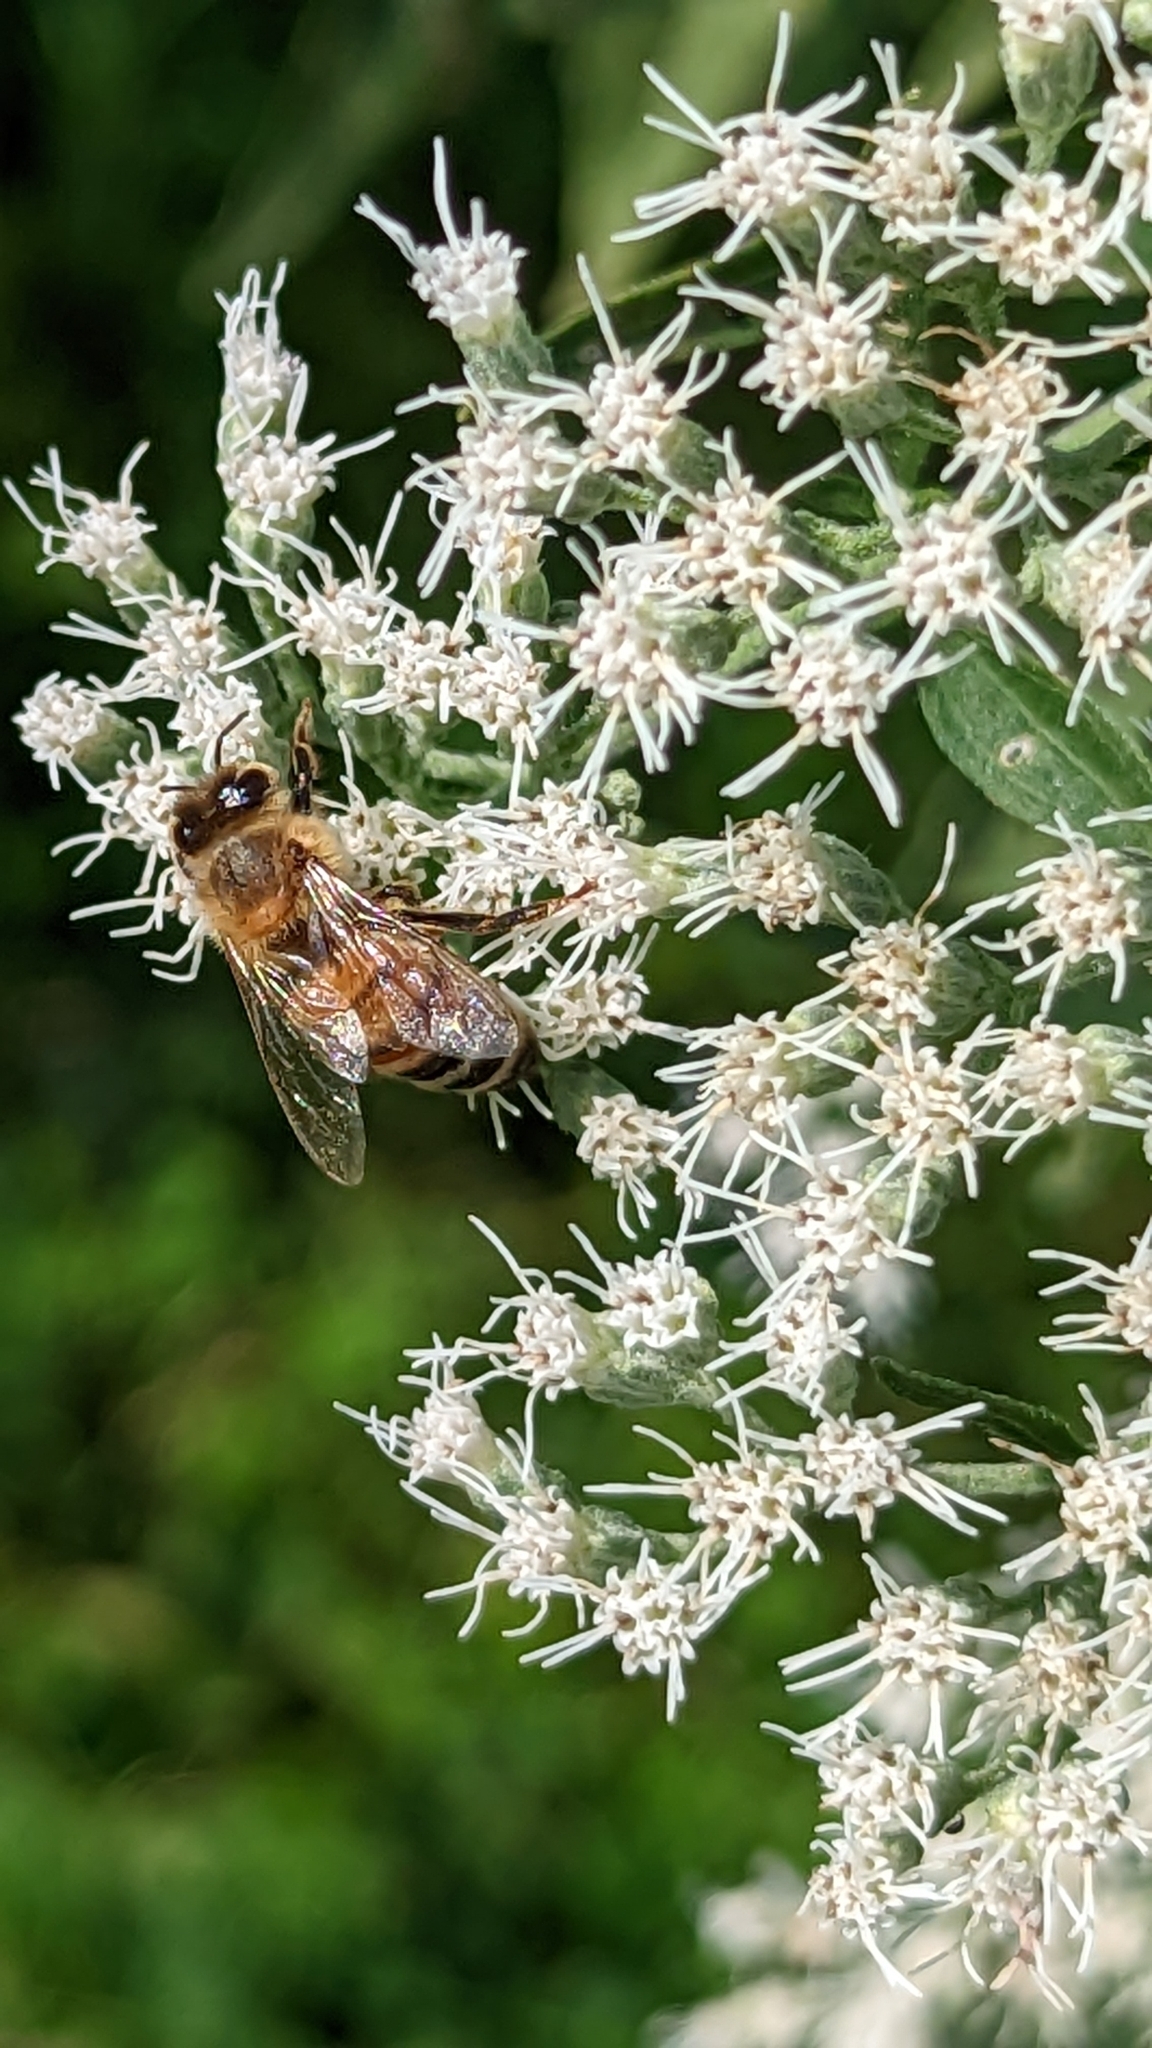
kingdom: Animalia
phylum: Arthropoda
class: Insecta
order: Hymenoptera
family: Apidae
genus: Apis
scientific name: Apis mellifera
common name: Honey bee
